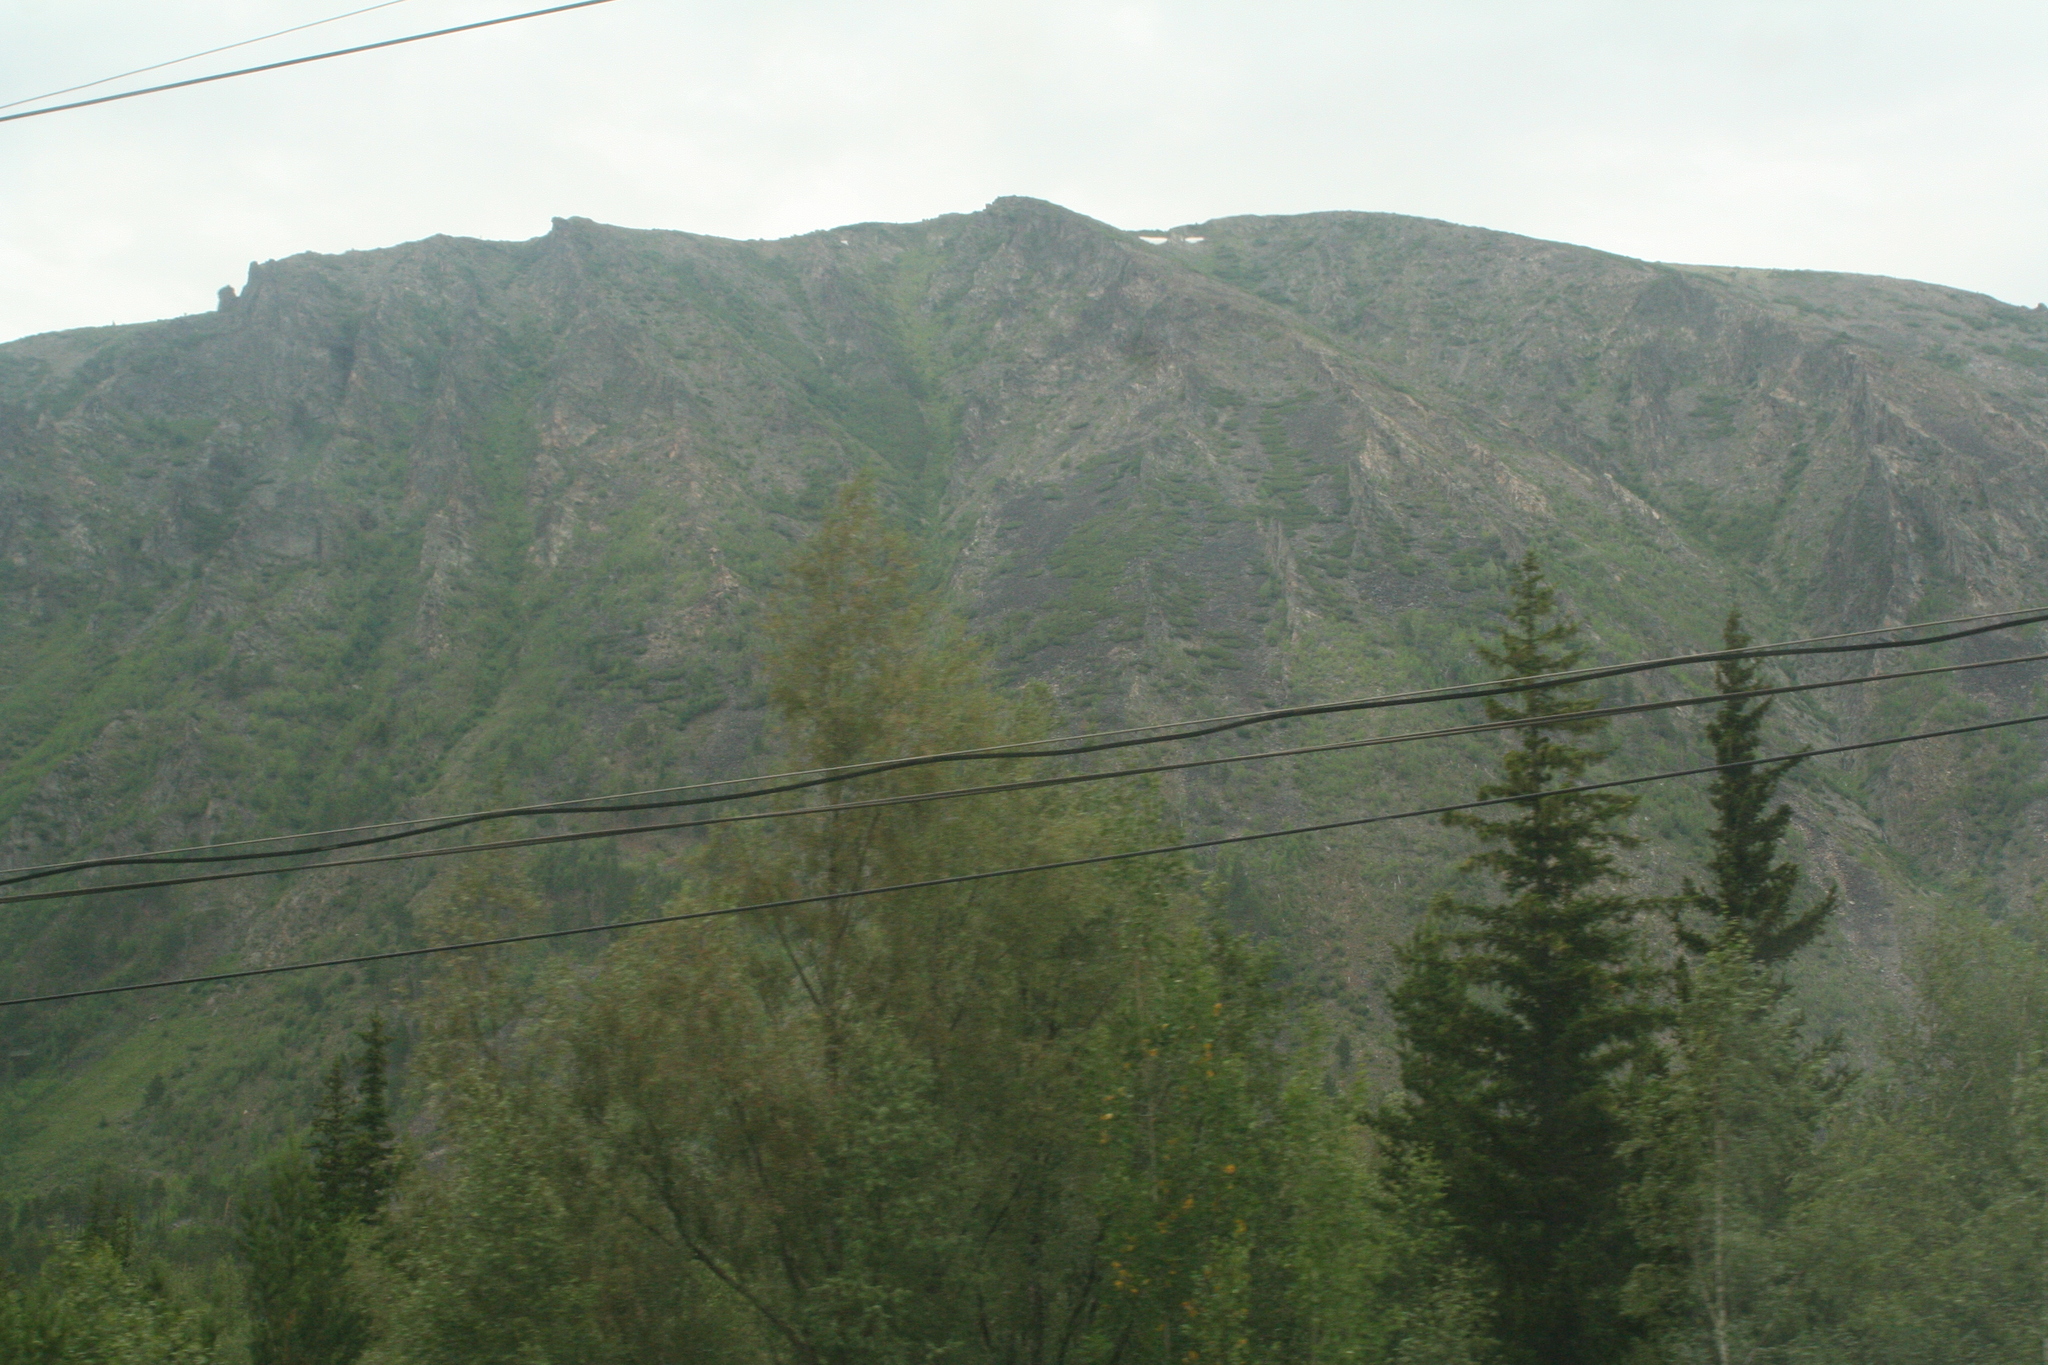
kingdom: Plantae
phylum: Tracheophyta
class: Pinopsida
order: Pinales
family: Pinaceae
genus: Picea
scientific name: Picea obovata
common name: Siberian spruce
